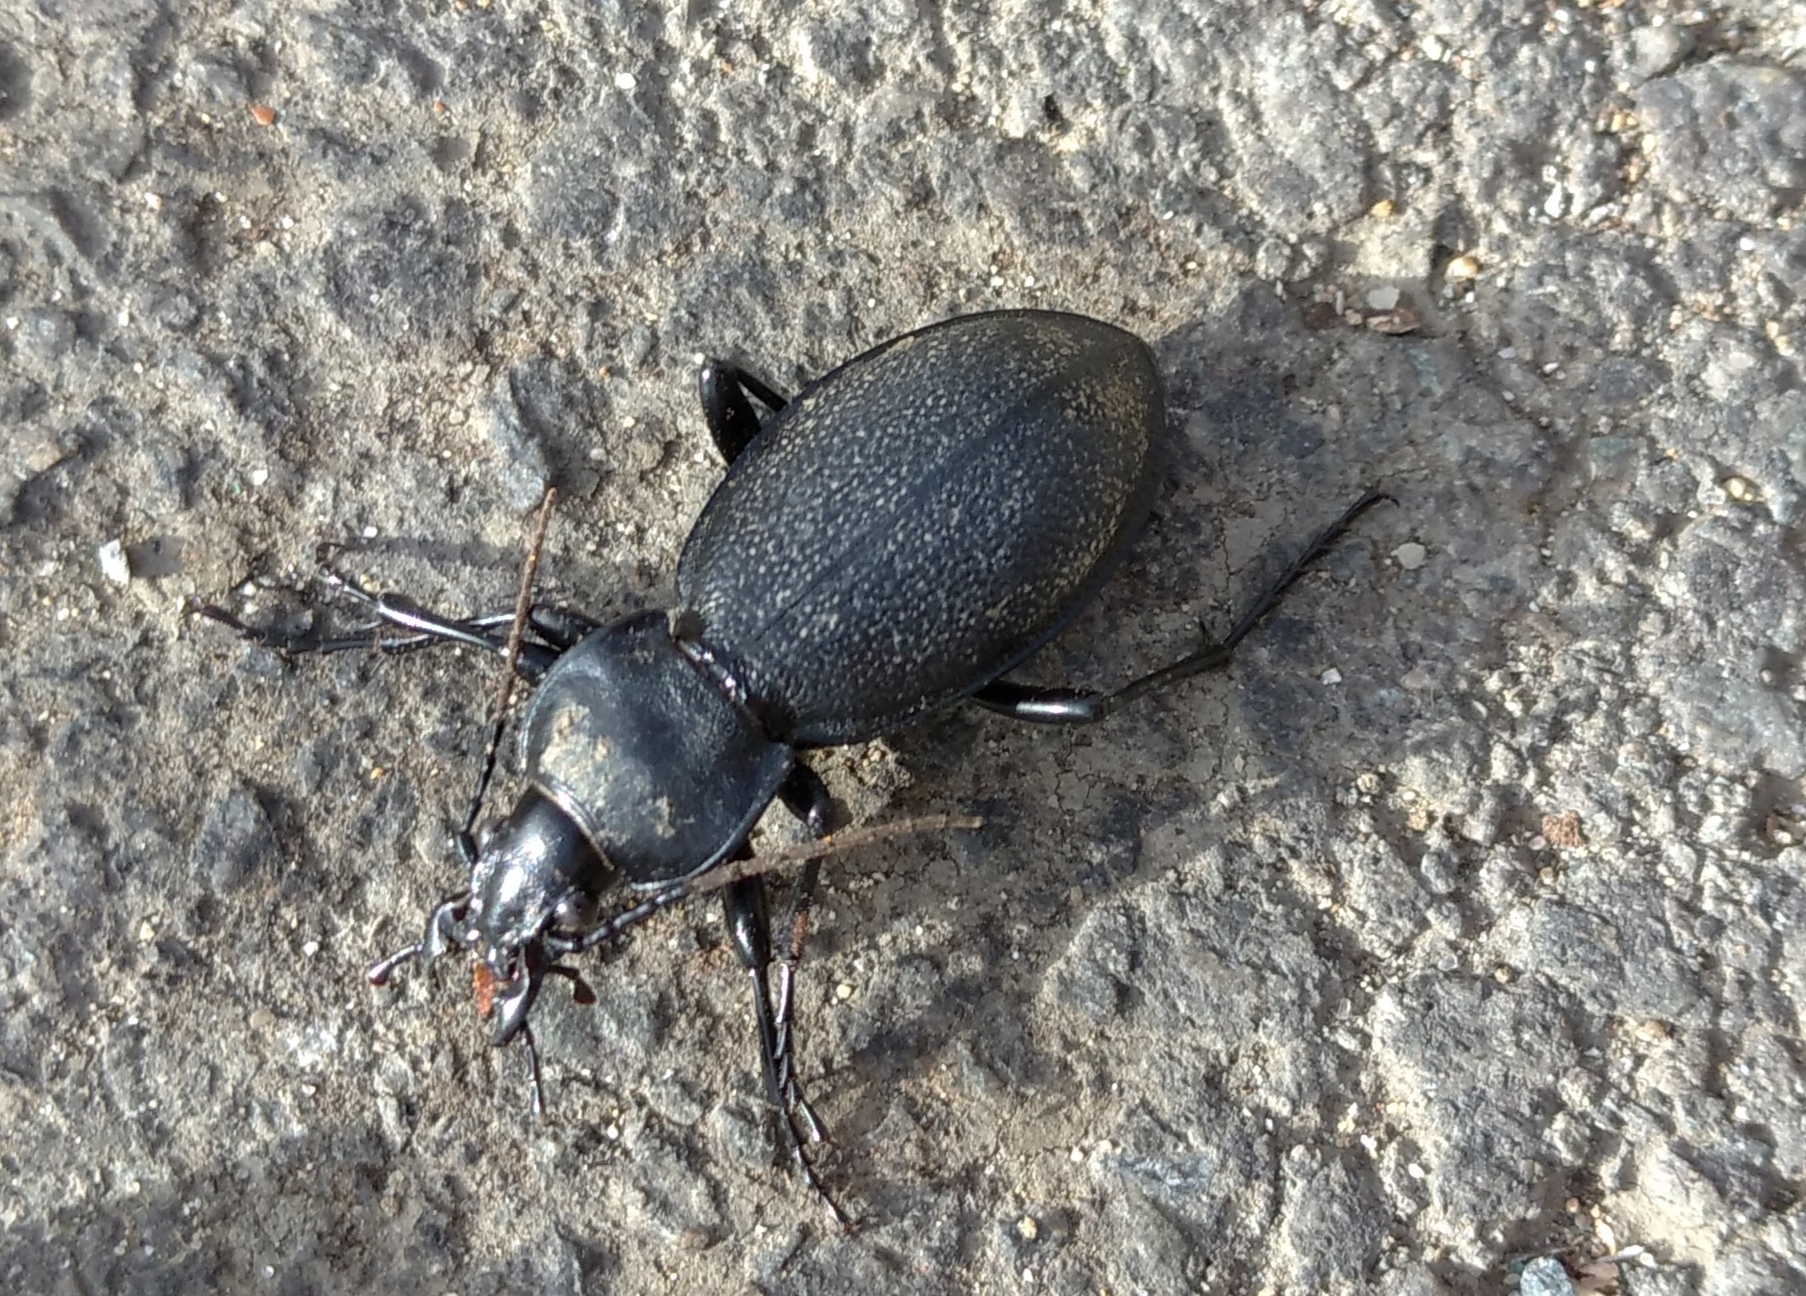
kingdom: Animalia
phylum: Arthropoda
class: Insecta
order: Coleoptera
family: Carabidae
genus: Carabus
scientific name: Carabus coriaceus
